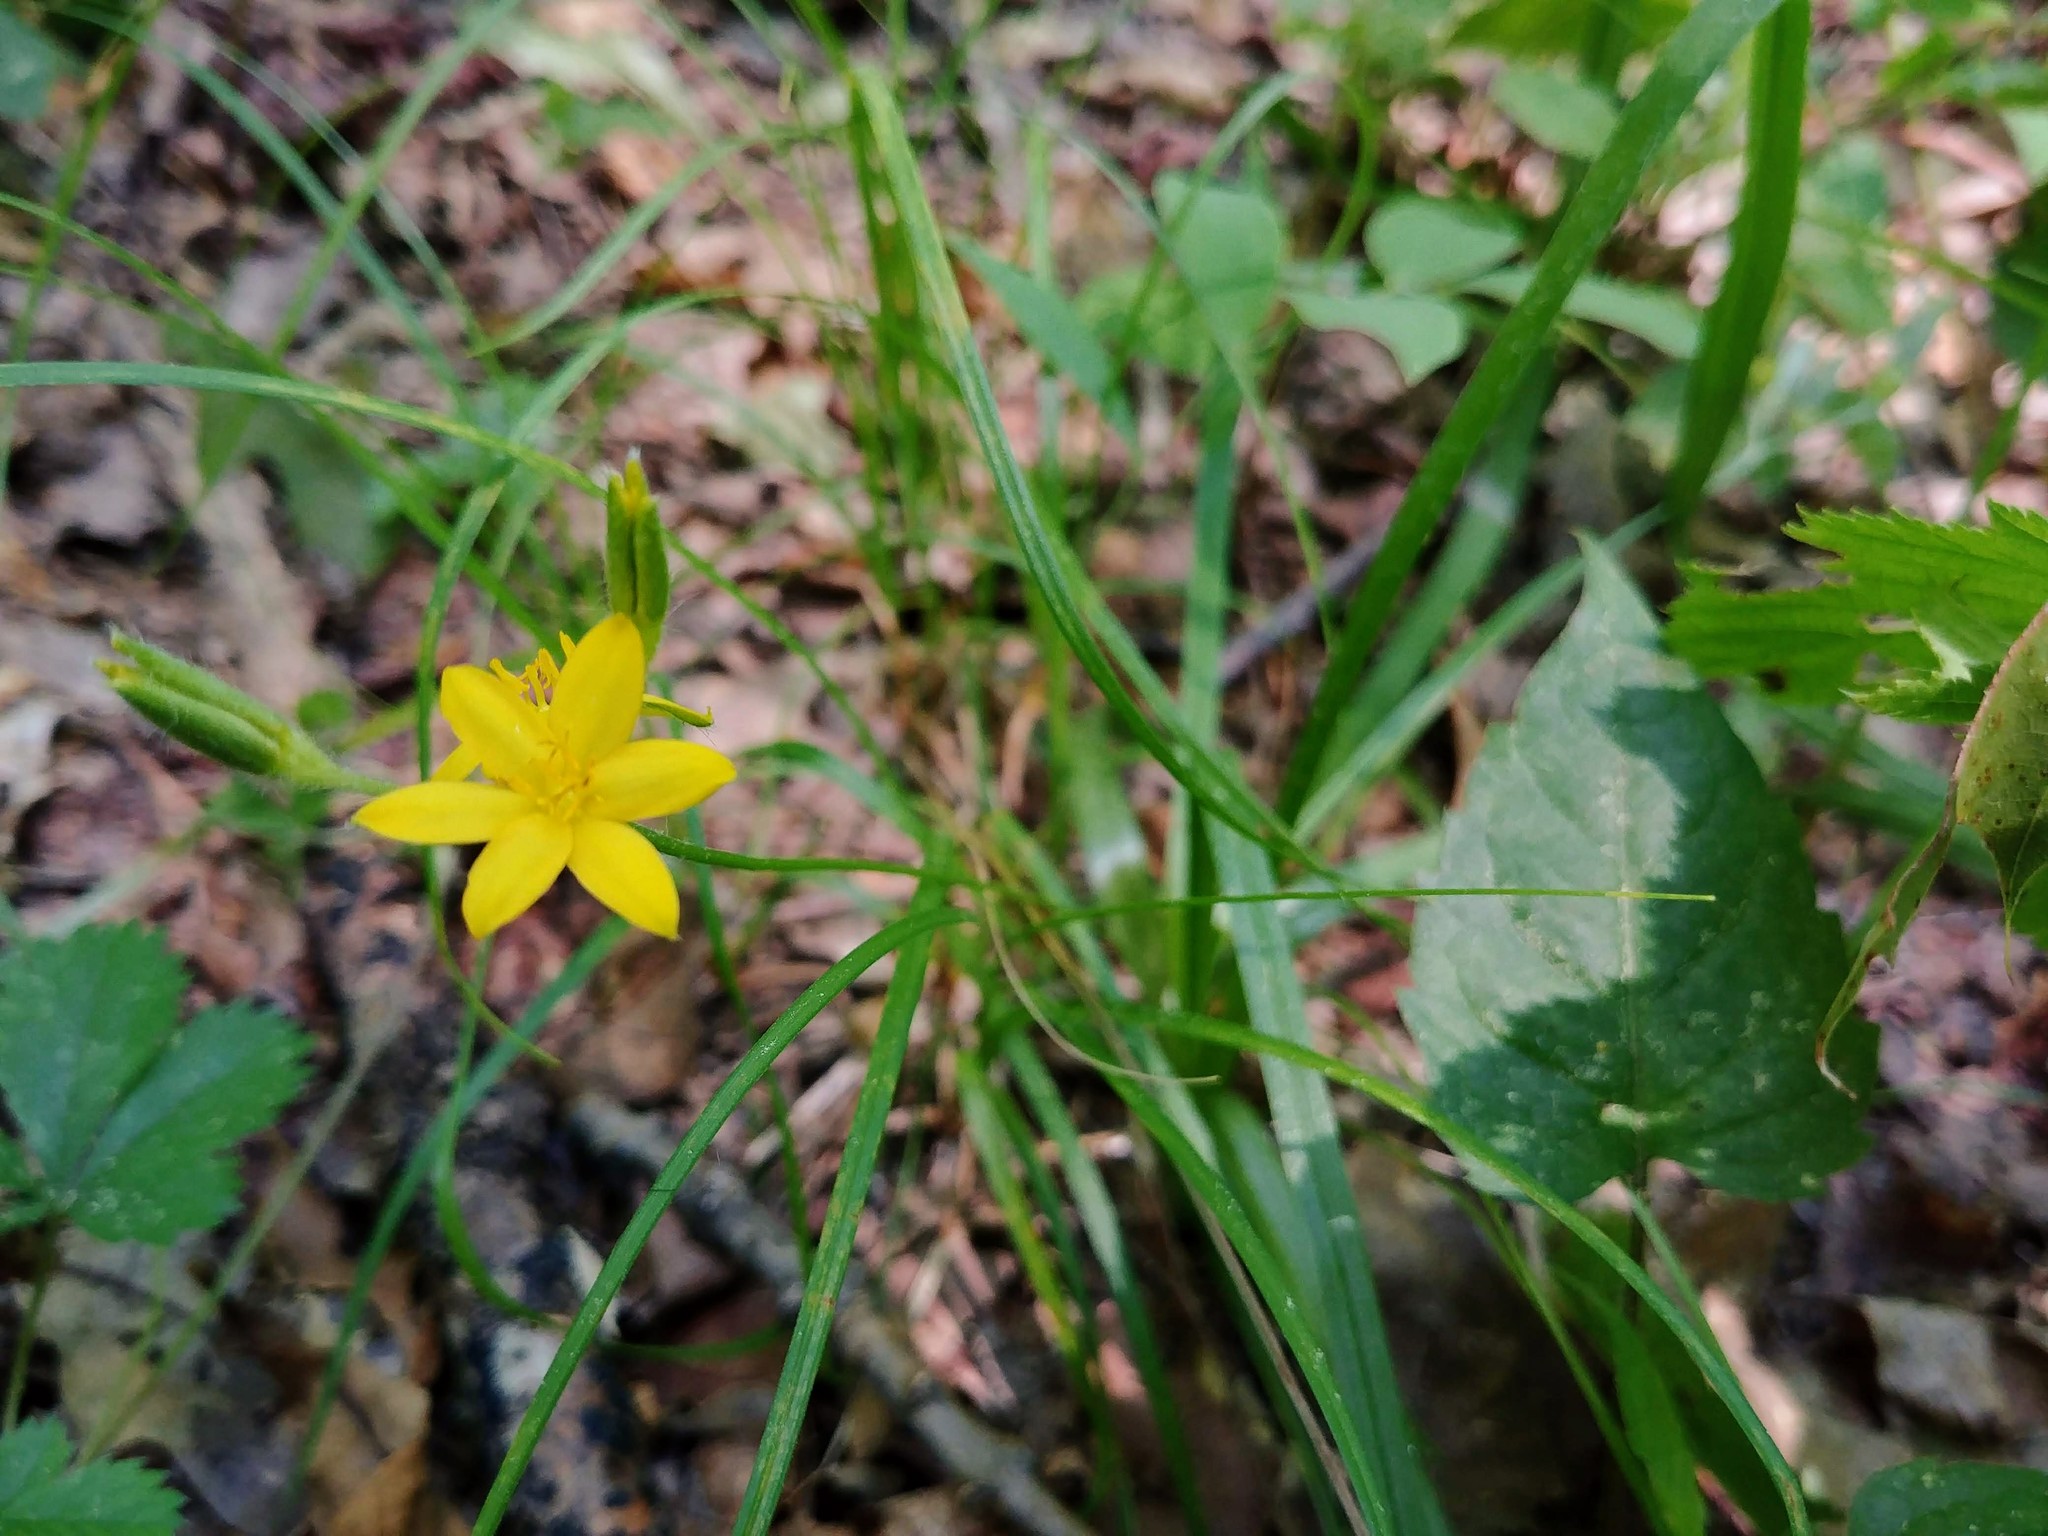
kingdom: Plantae
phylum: Tracheophyta
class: Liliopsida
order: Asparagales
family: Hypoxidaceae
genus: Hypoxis
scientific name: Hypoxis hirsuta
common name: Common goldstar
